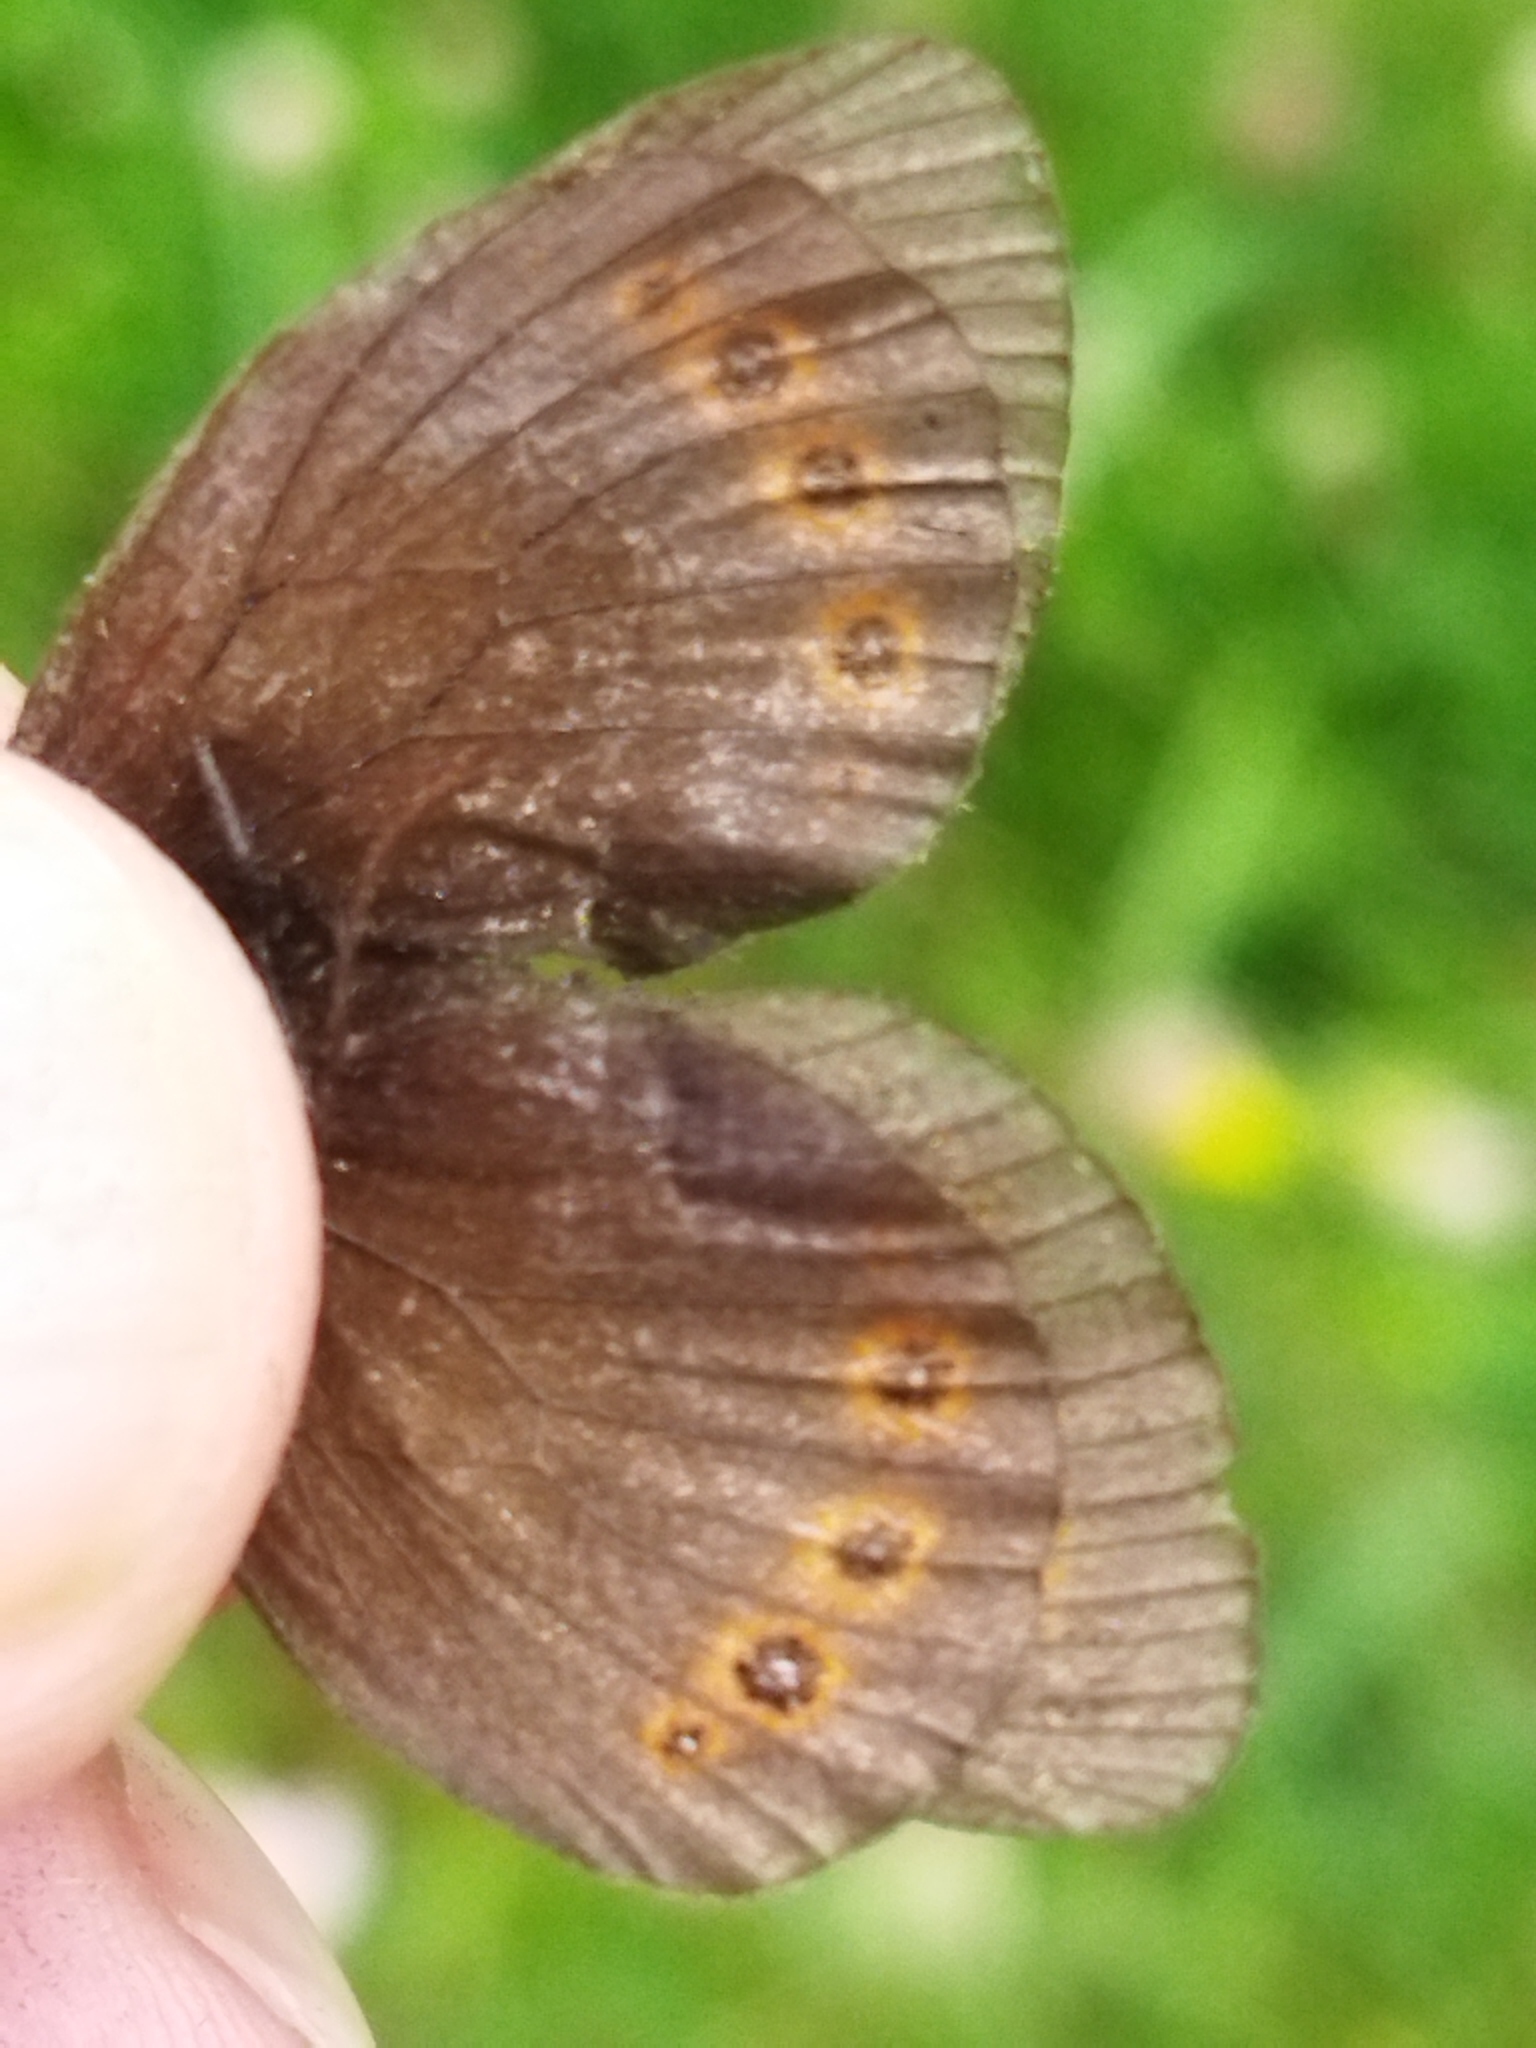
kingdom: Animalia
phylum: Arthropoda
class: Insecta
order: Lepidoptera
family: Nymphalidae
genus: Erebia
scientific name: Erebia oeme
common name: Bright-eyed ringlet
